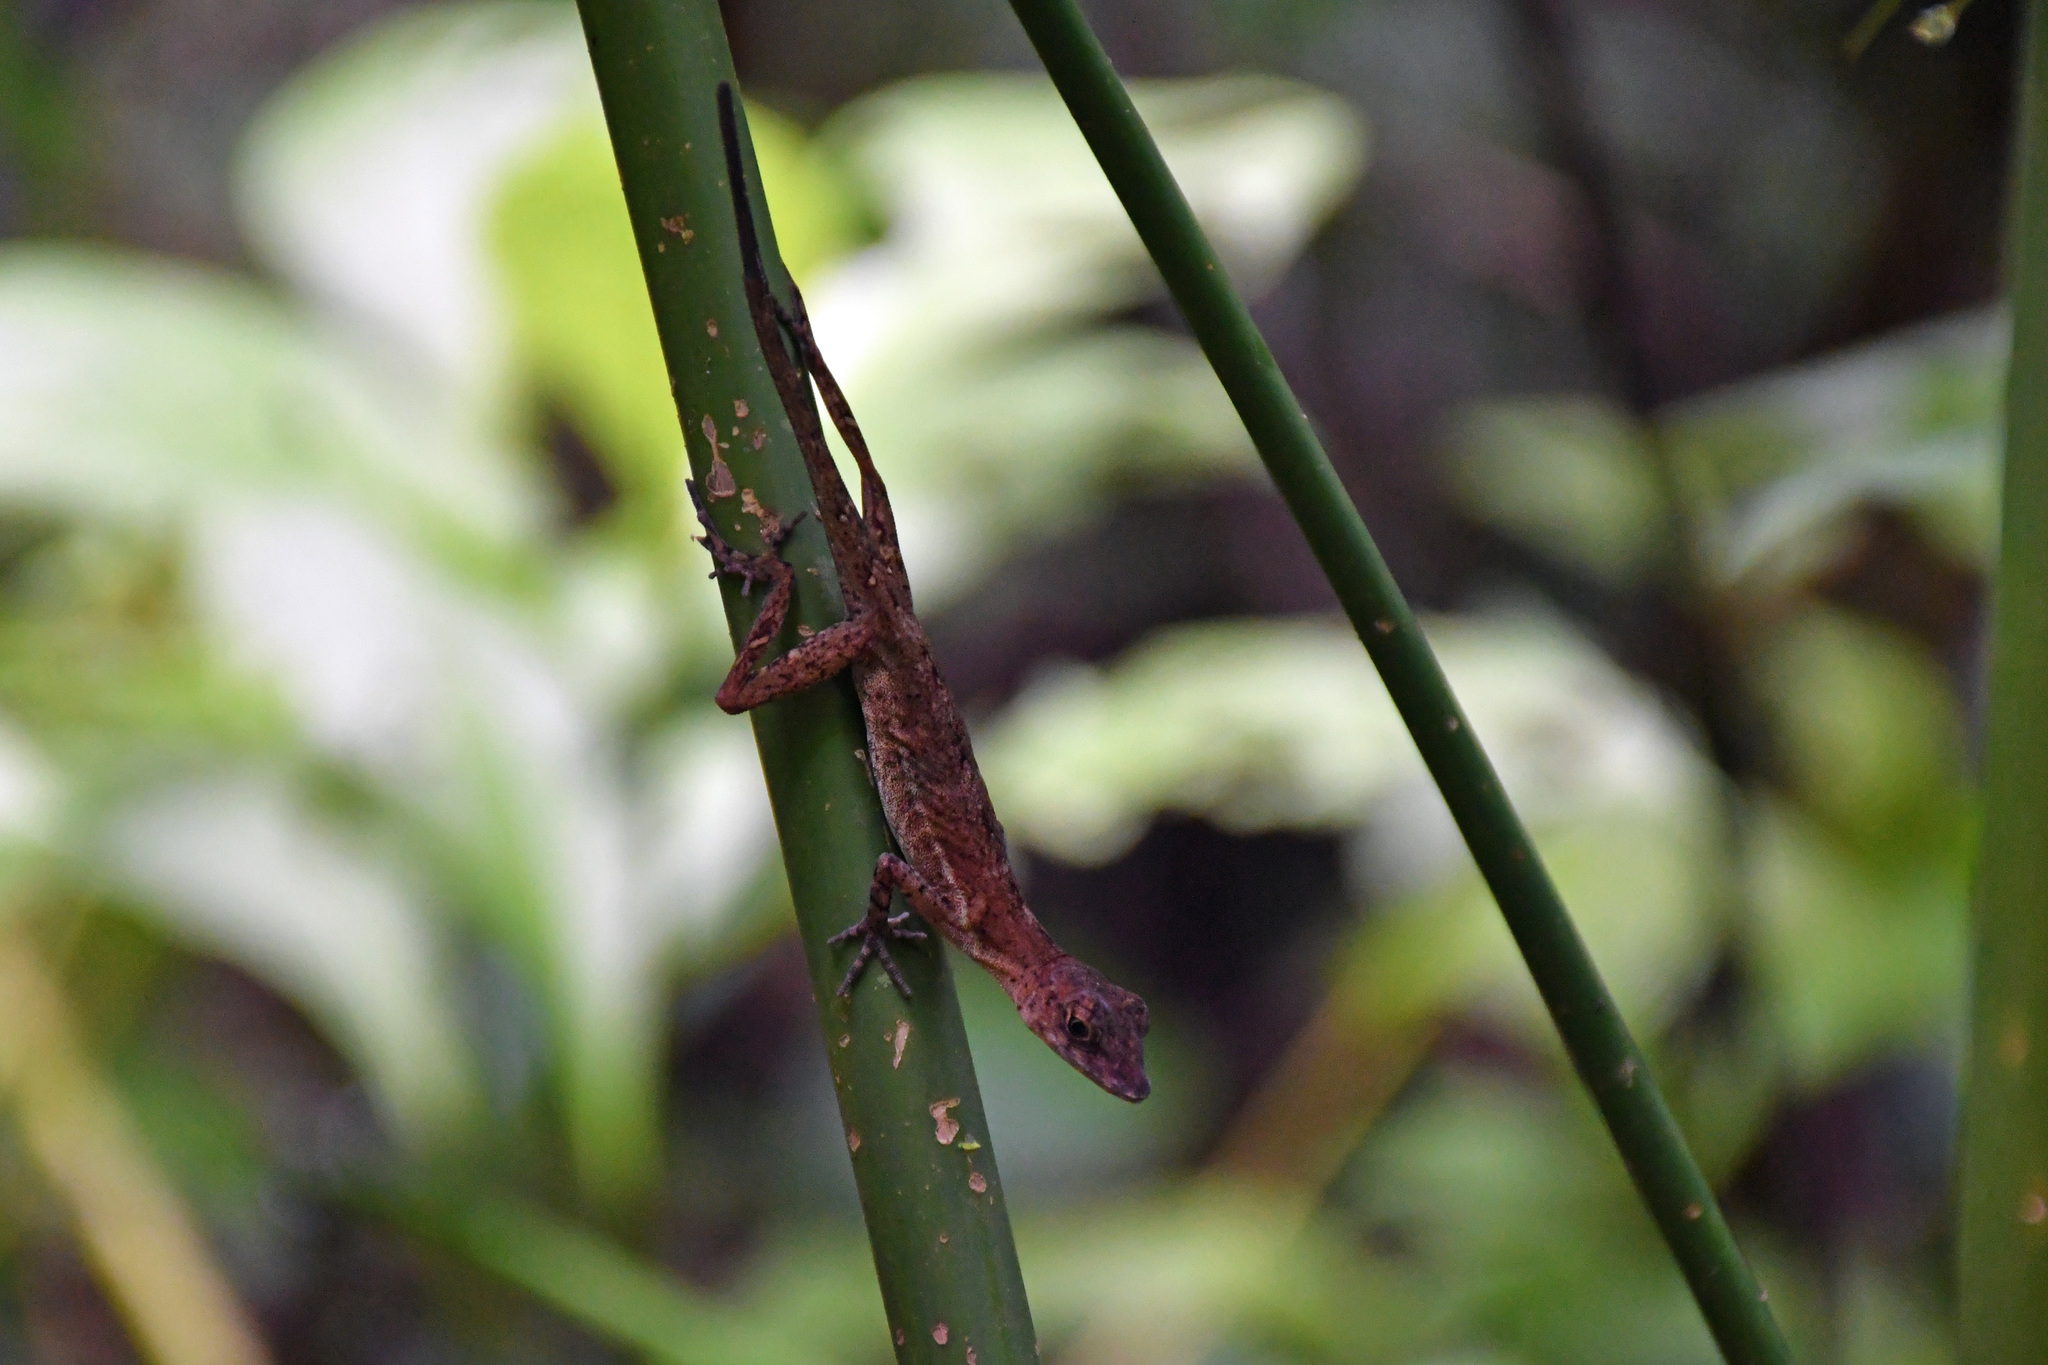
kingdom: Animalia
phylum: Chordata
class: Squamata
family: Dactyloidae
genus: Anolis
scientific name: Anolis polylepis
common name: Many-scaled anole
